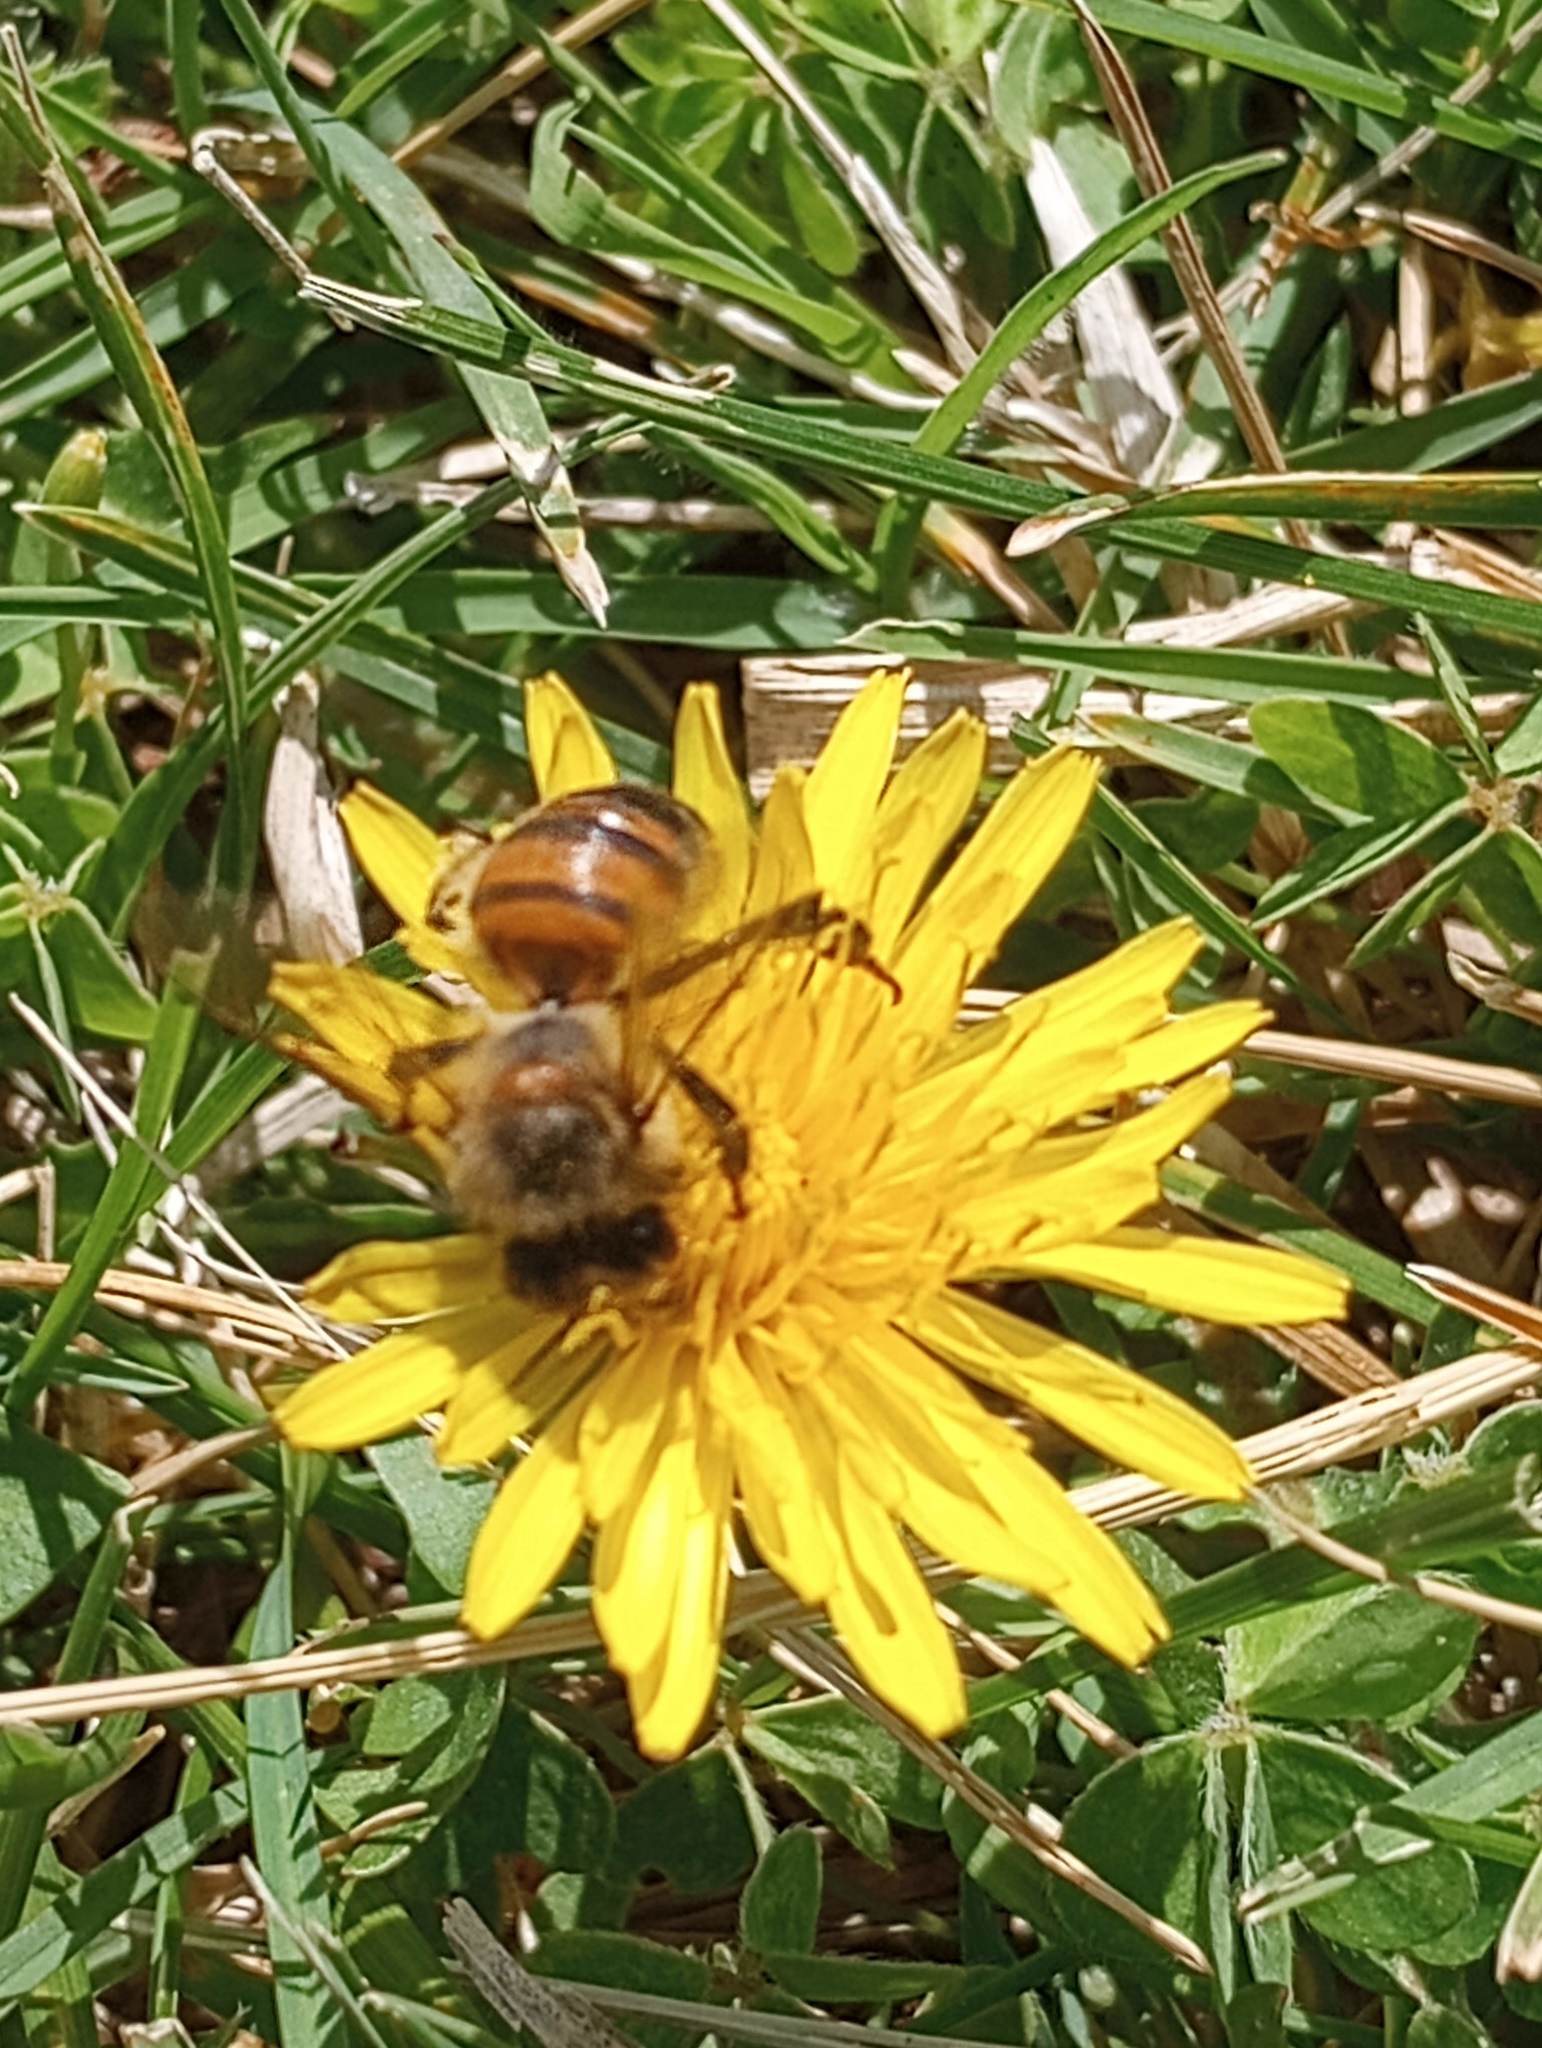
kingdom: Animalia
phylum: Arthropoda
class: Insecta
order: Hymenoptera
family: Apidae
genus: Apis
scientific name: Apis mellifera
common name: Honey bee
